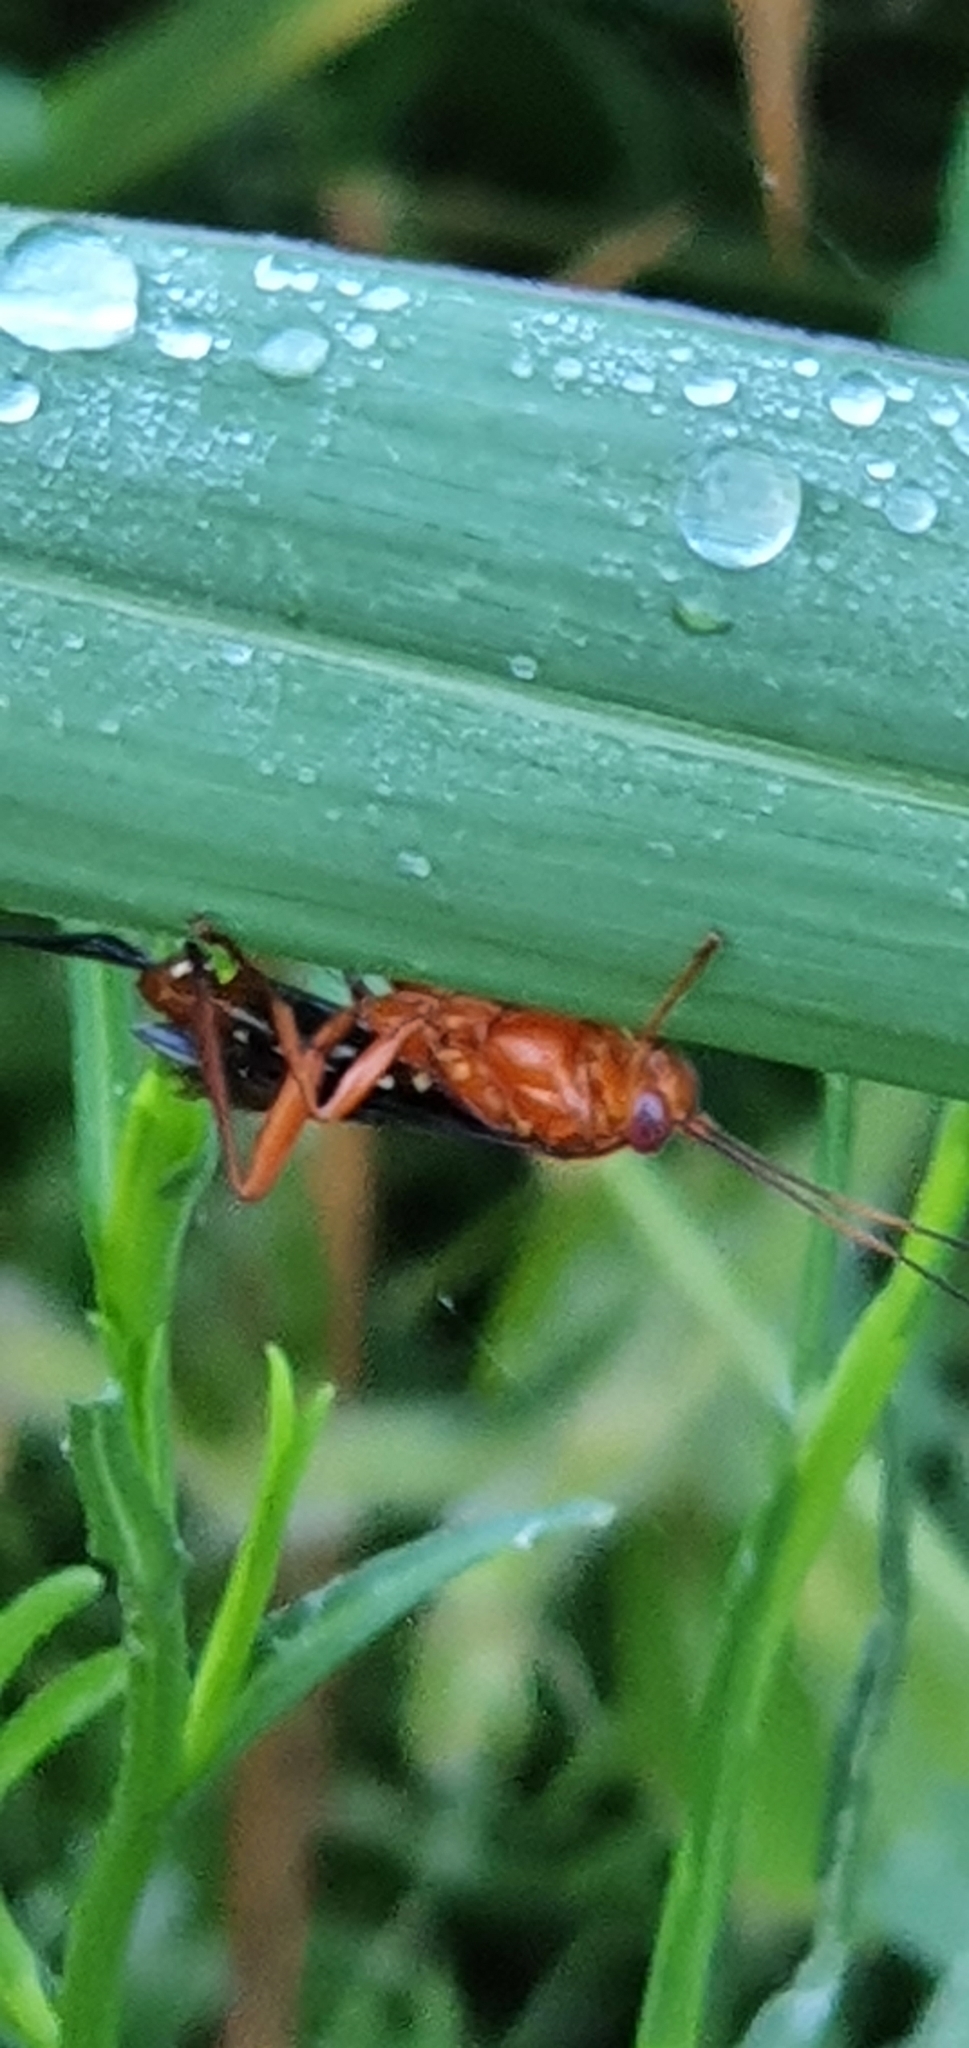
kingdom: Animalia
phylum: Arthropoda
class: Insecta
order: Hymenoptera
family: Ichneumonidae
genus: Lissopimpla
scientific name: Lissopimpla excelsa
